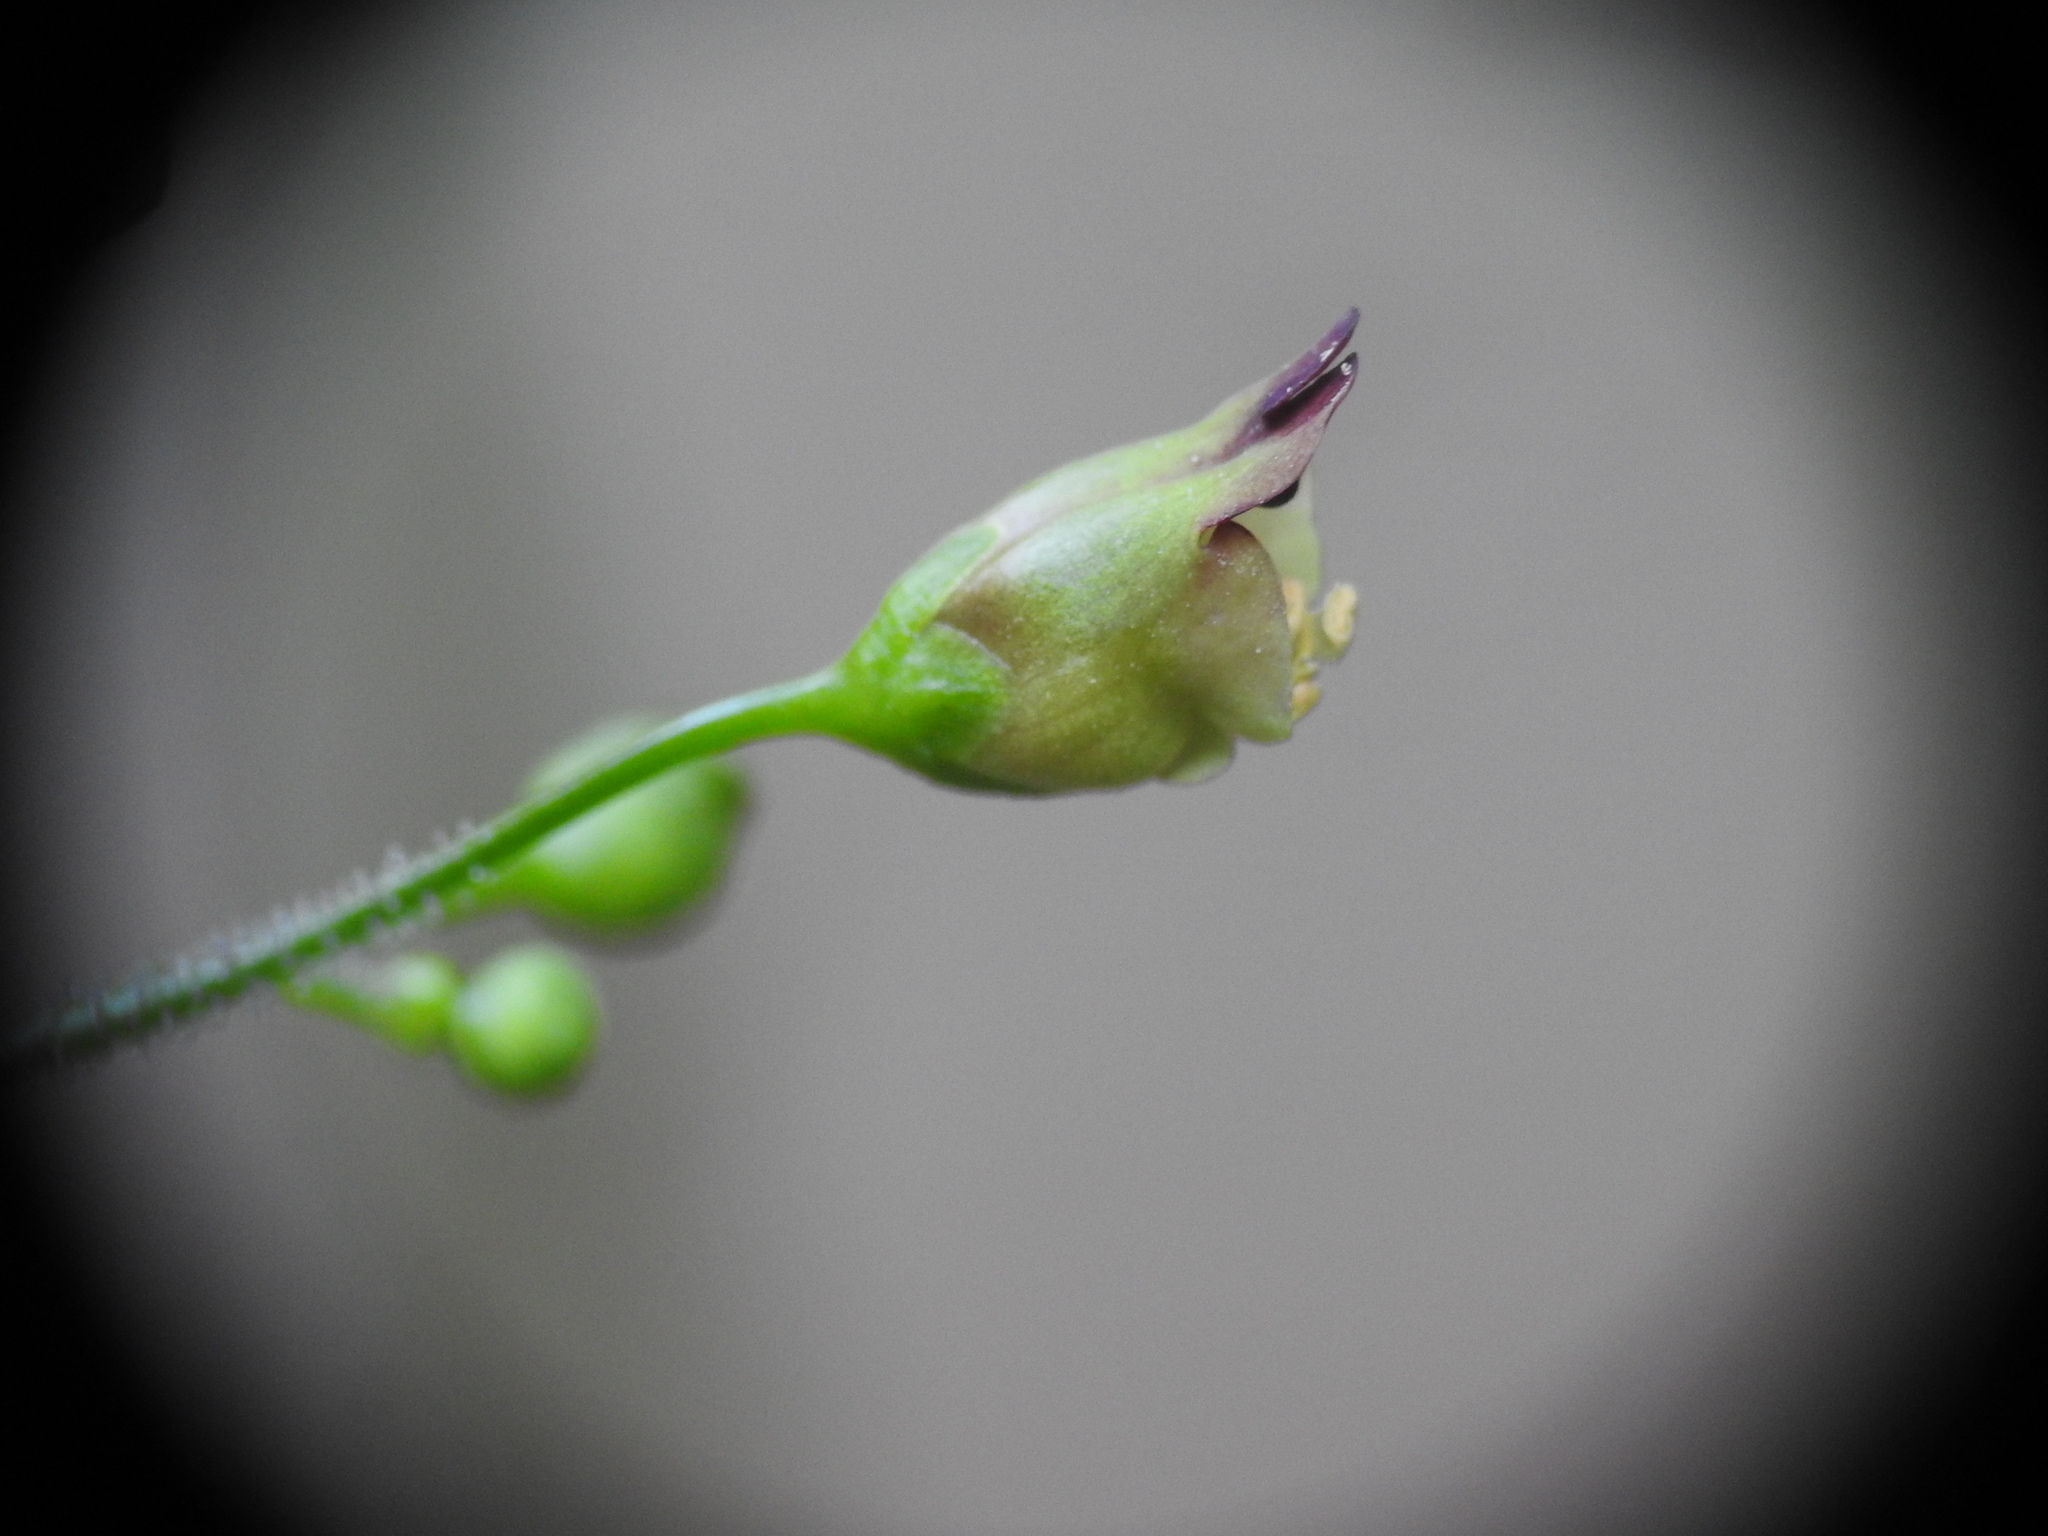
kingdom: Plantae
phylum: Tracheophyta
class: Magnoliopsida
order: Lamiales
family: Scrophulariaceae
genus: Scrophularia
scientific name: Scrophularia nodosa
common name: Common figwort
